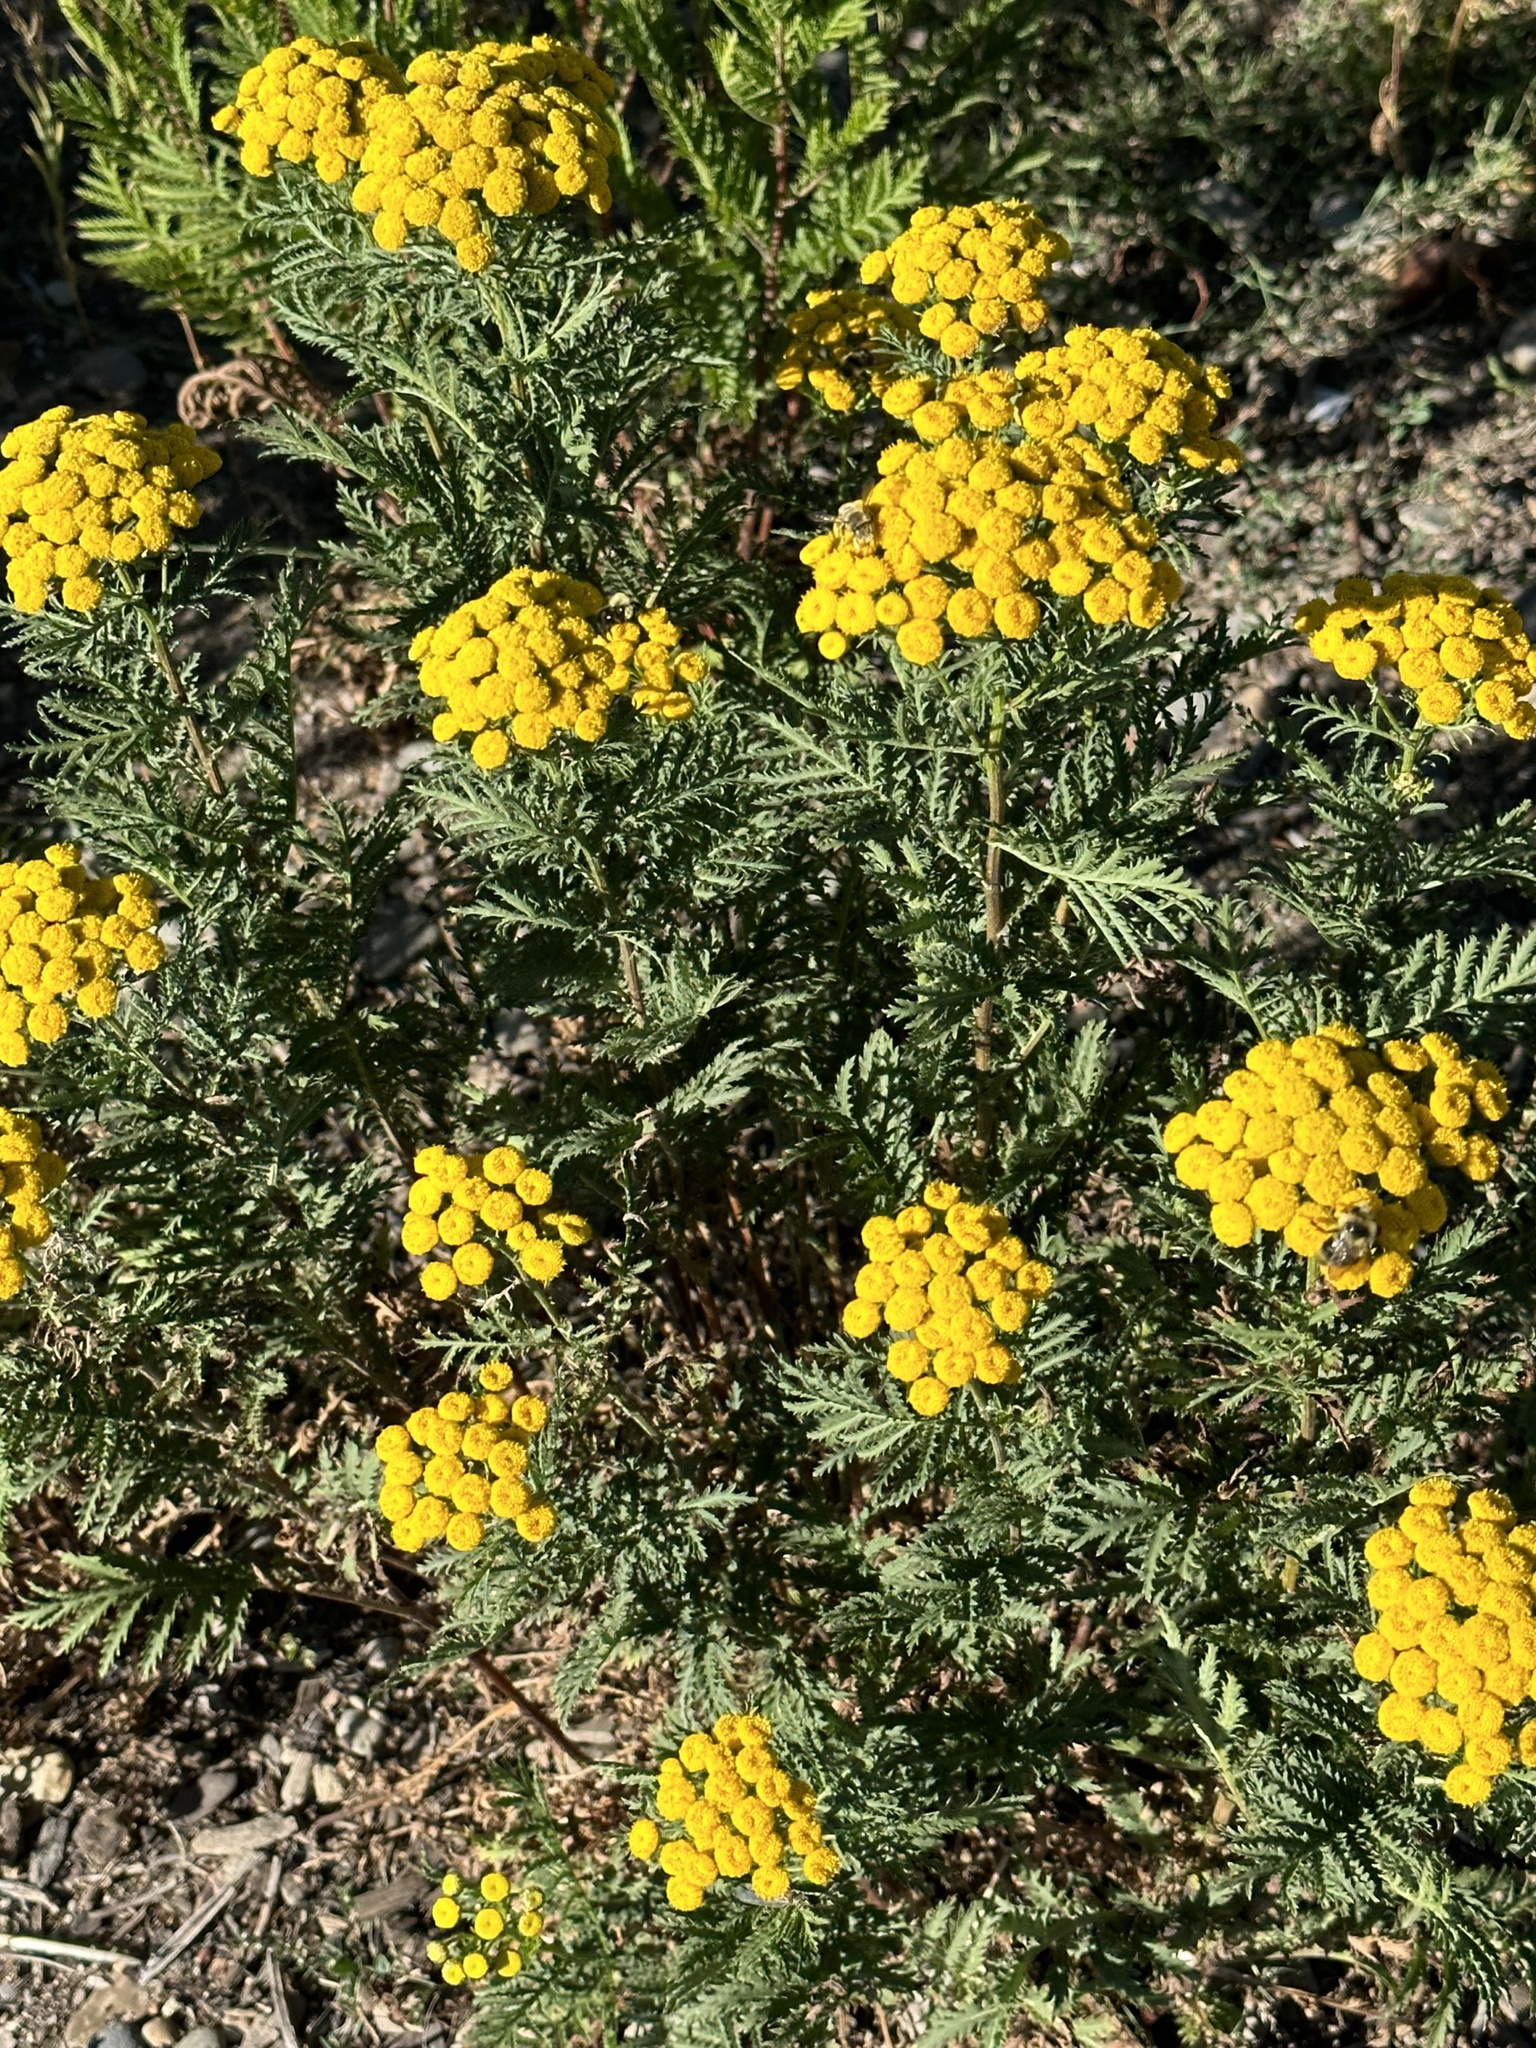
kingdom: Plantae
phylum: Tracheophyta
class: Magnoliopsida
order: Asterales
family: Asteraceae
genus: Tanacetum
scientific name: Tanacetum vulgare
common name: Common tansy
